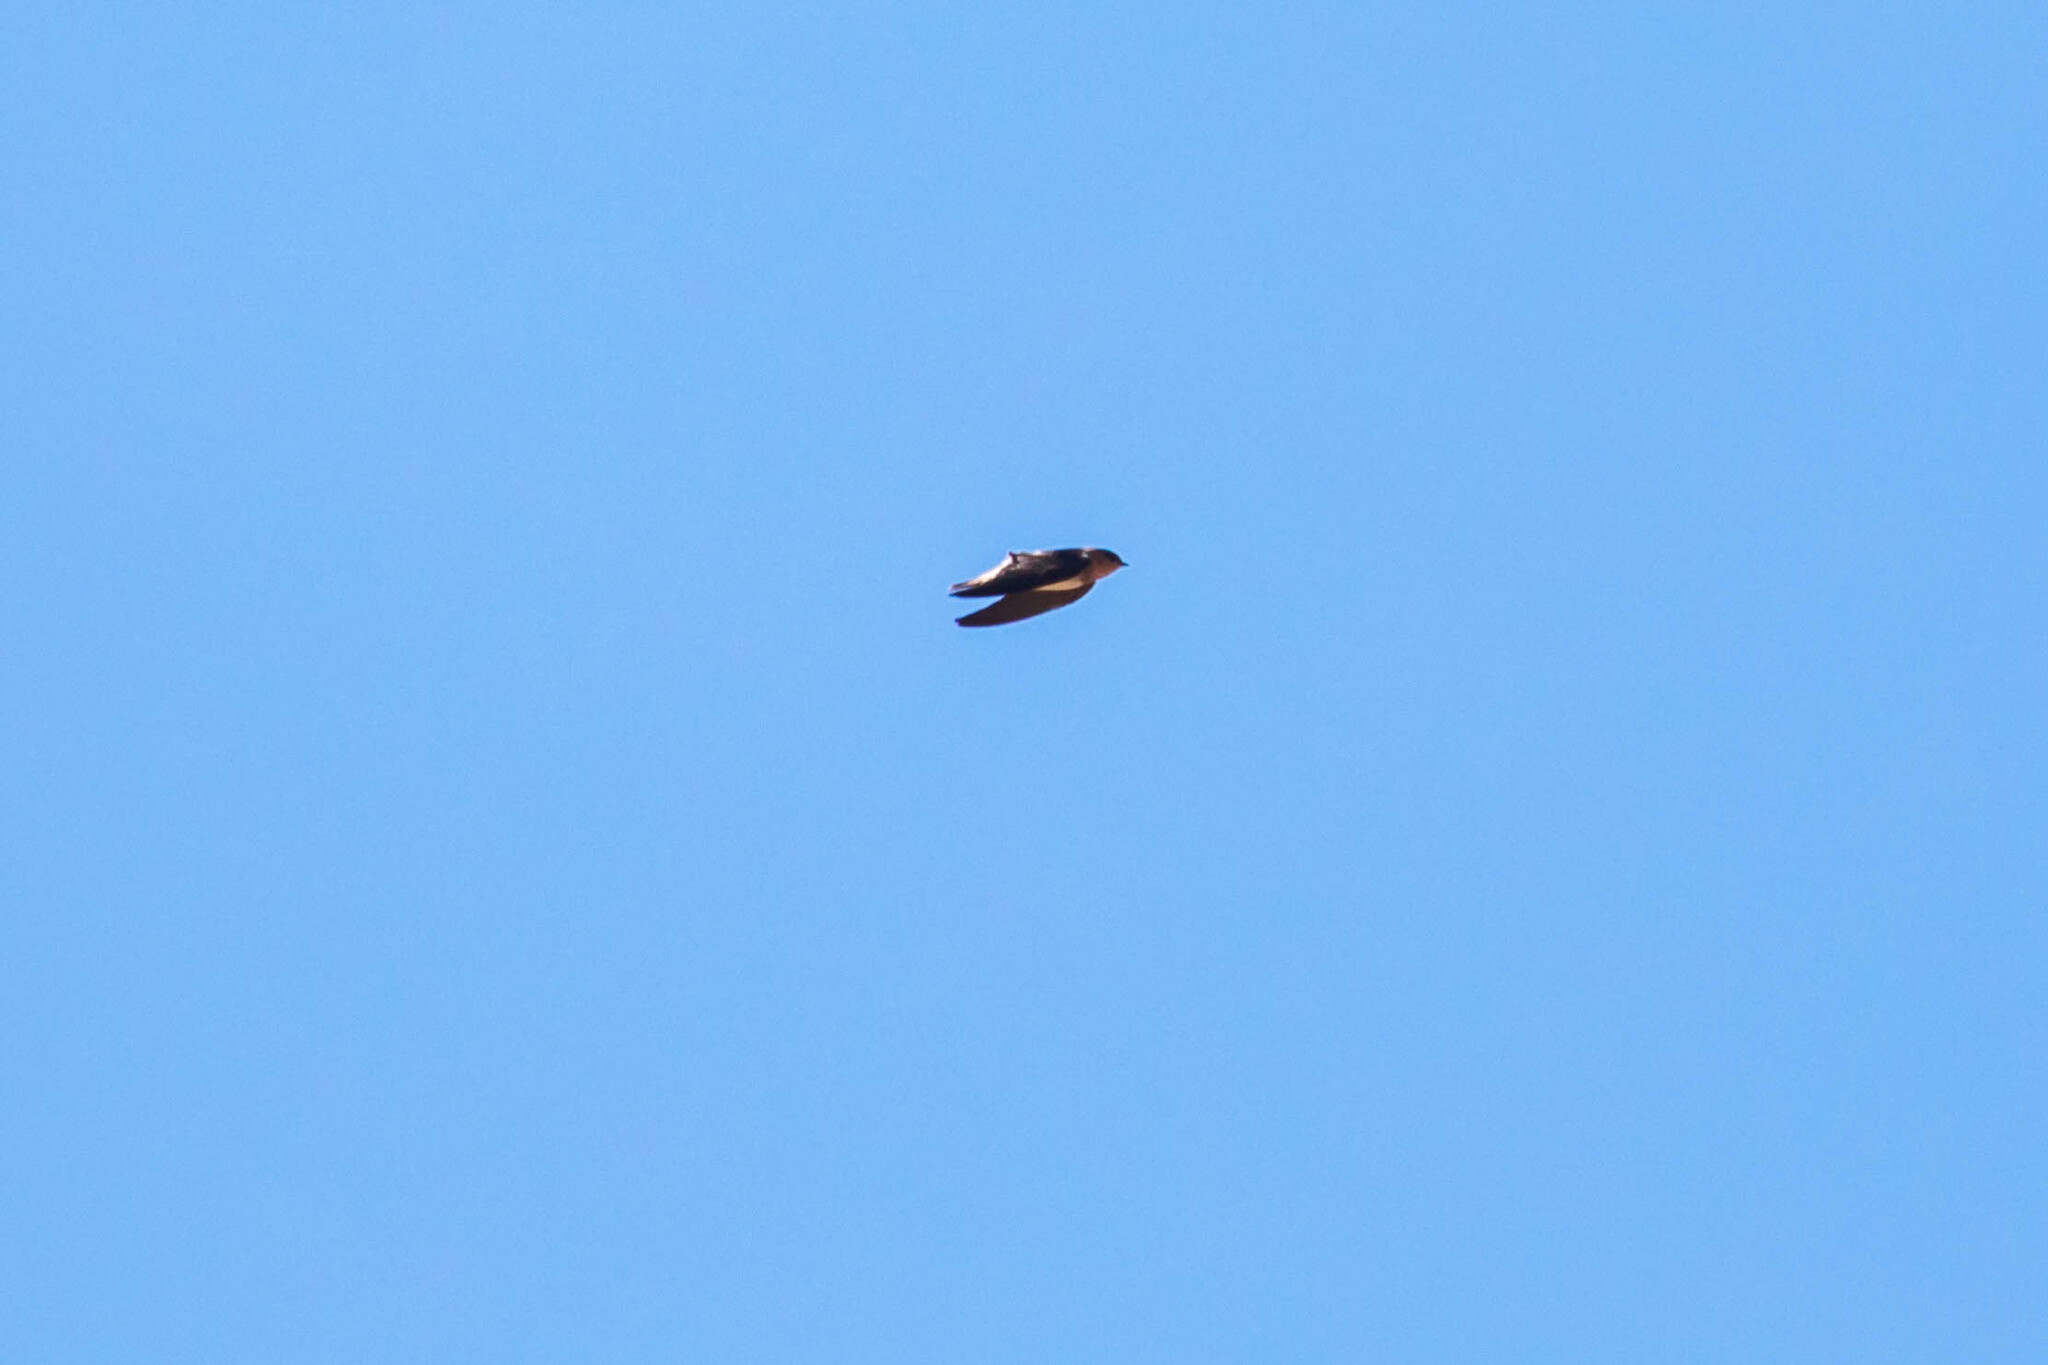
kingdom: Animalia
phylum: Chordata
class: Aves
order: Passeriformes
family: Hirundinidae
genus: Petrochelidon
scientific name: Petrochelidon fulva
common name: Cave swallow
